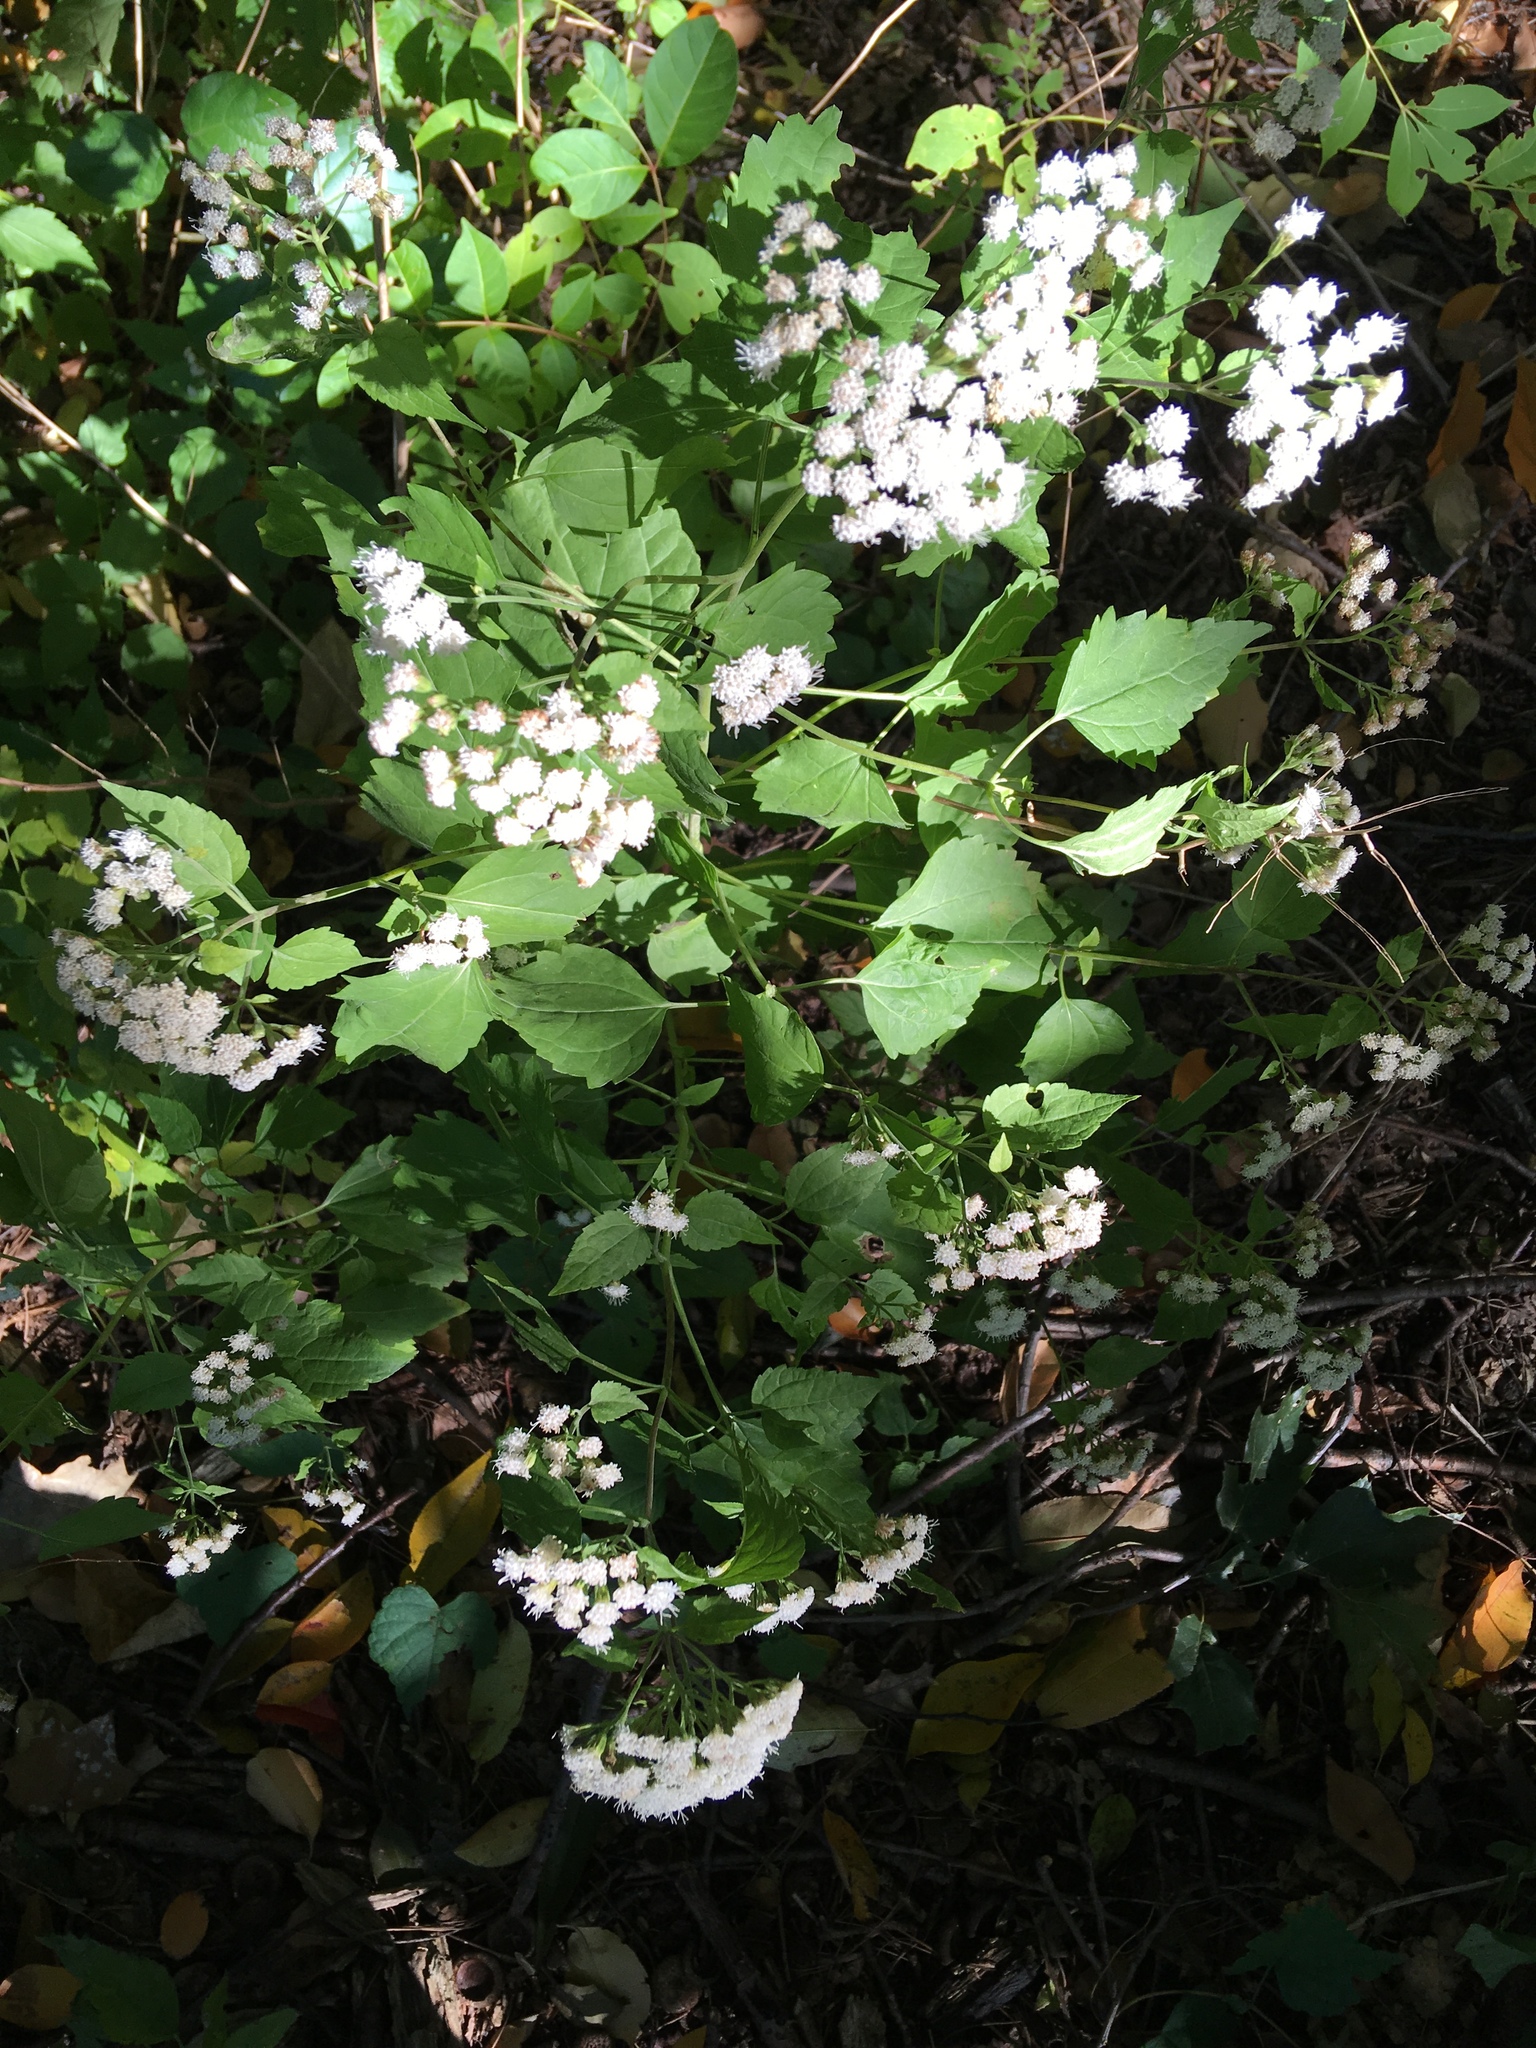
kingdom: Plantae
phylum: Tracheophyta
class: Magnoliopsida
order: Asterales
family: Asteraceae
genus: Ageratina
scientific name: Ageratina altissima
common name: White snakeroot
